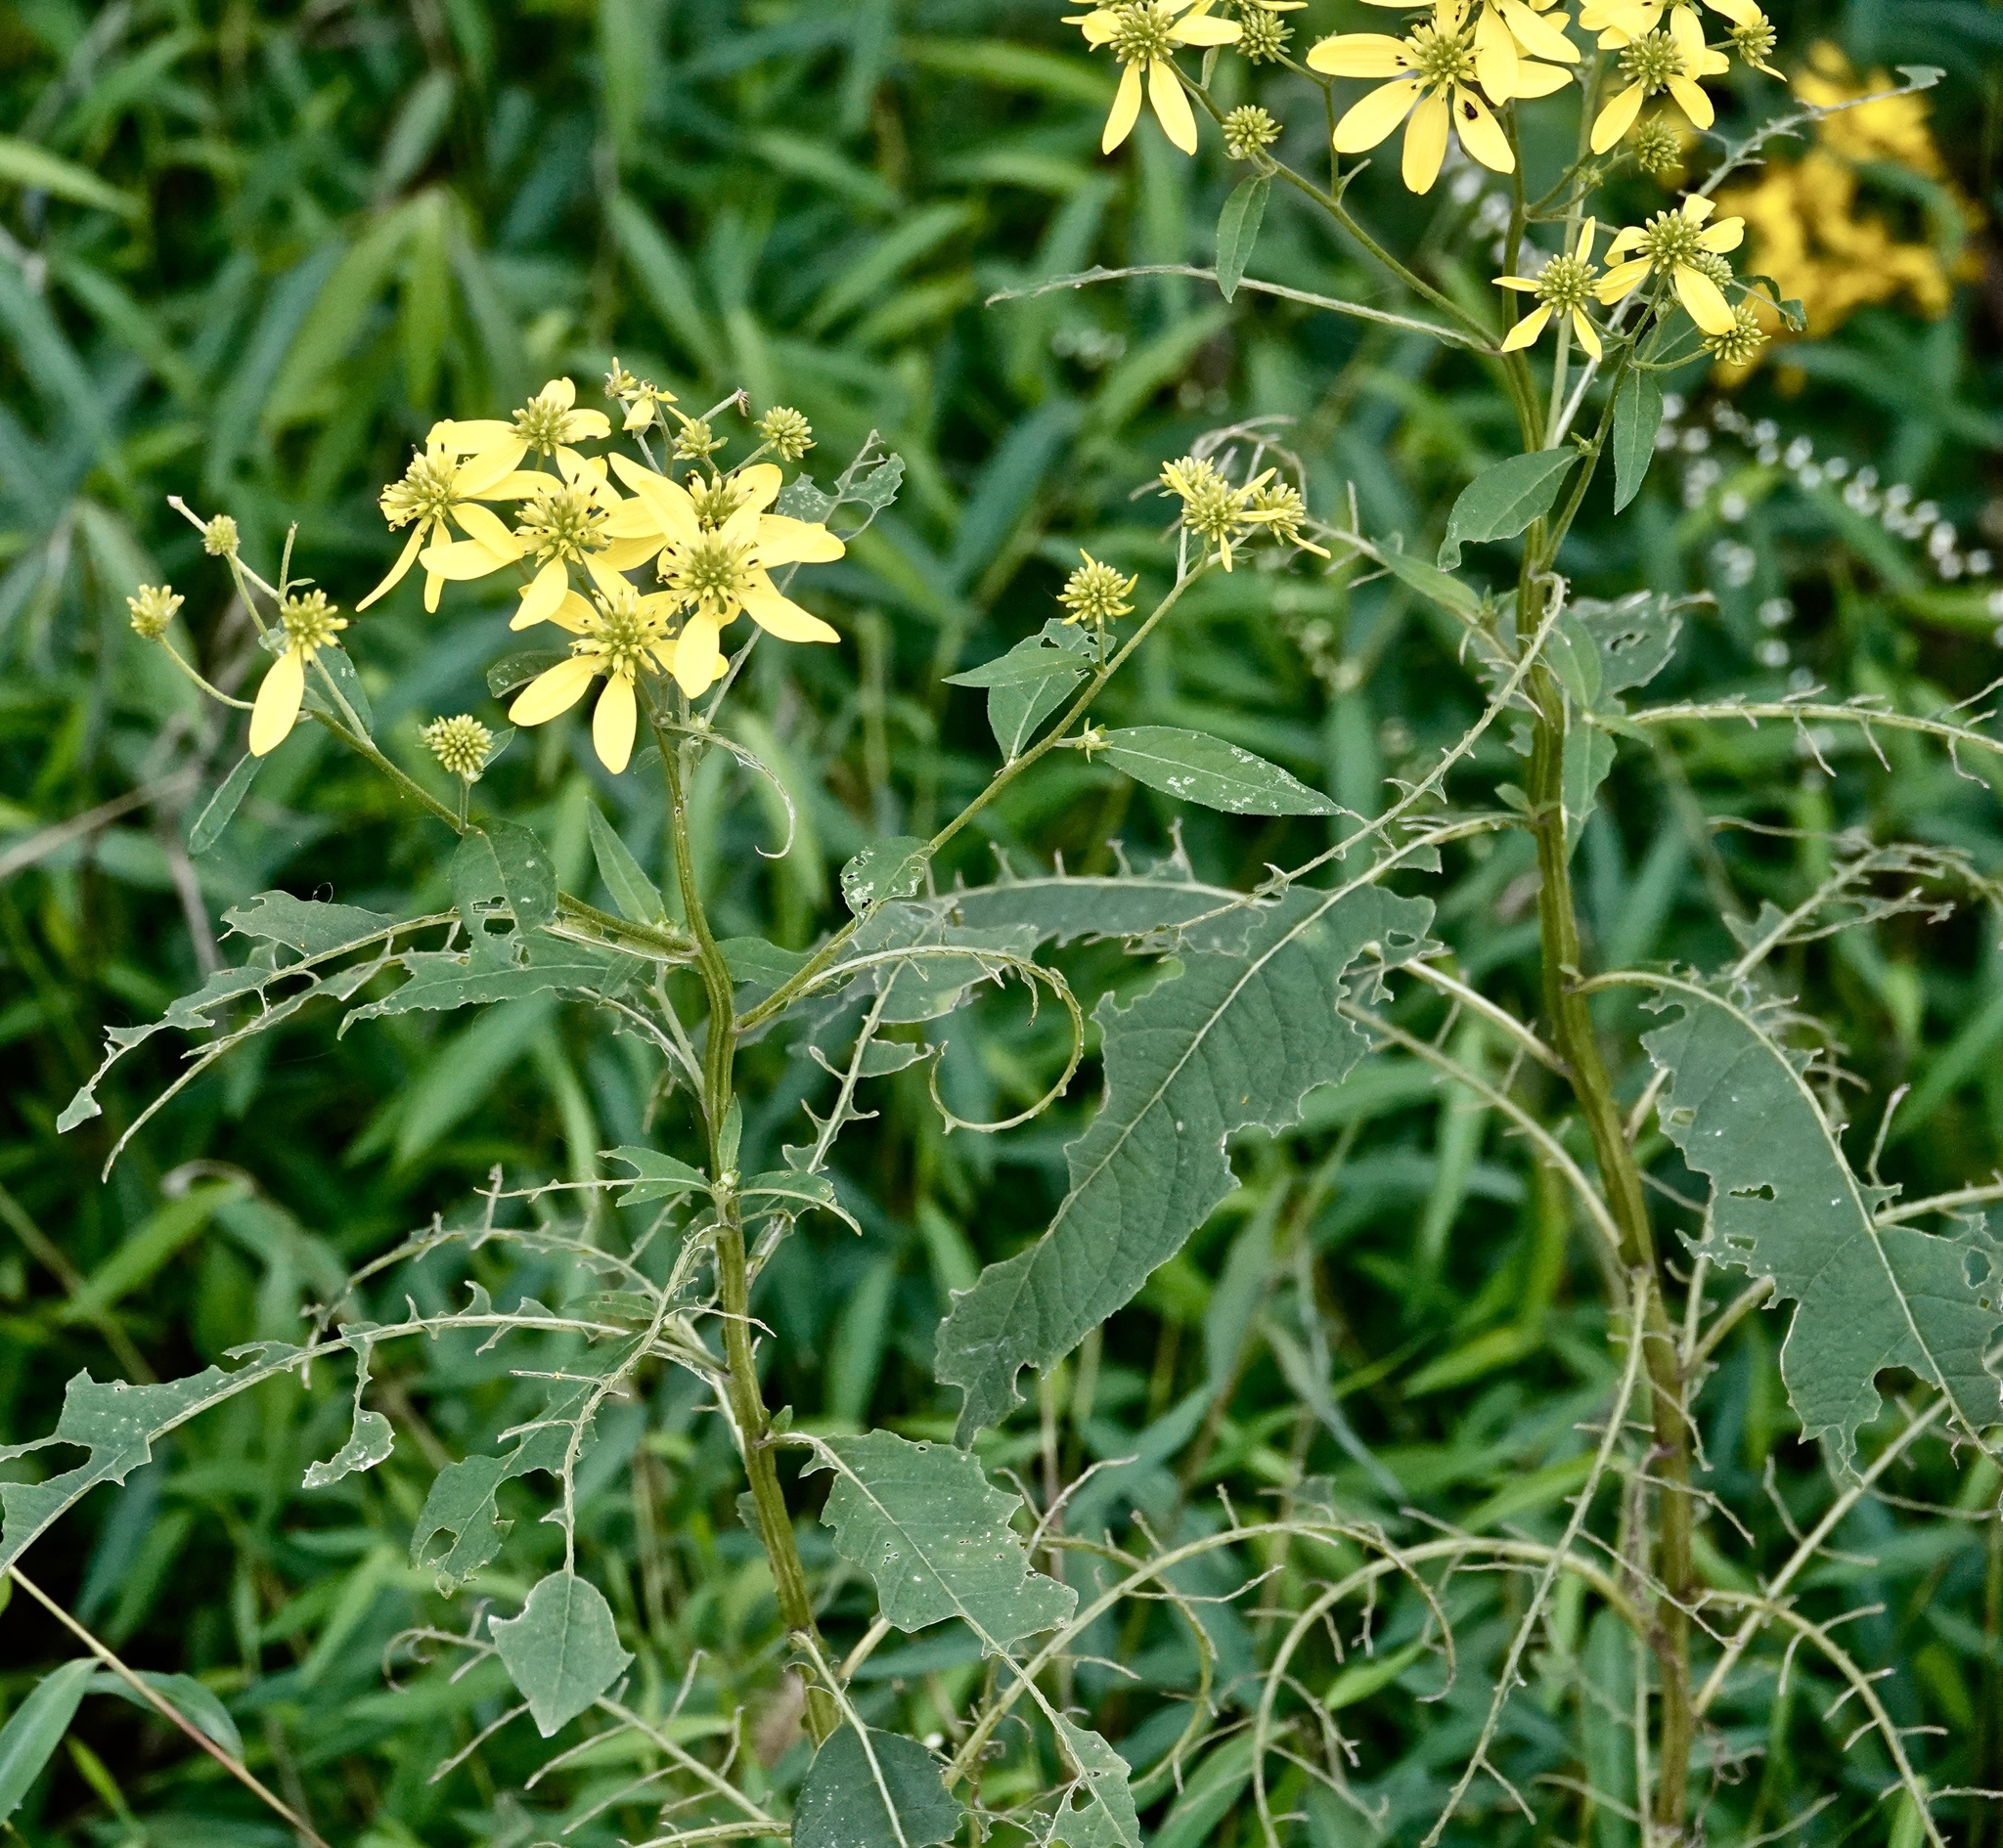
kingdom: Plantae
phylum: Tracheophyta
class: Magnoliopsida
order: Asterales
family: Asteraceae
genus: Verbesina
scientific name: Verbesina alternifolia
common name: Wingstem
